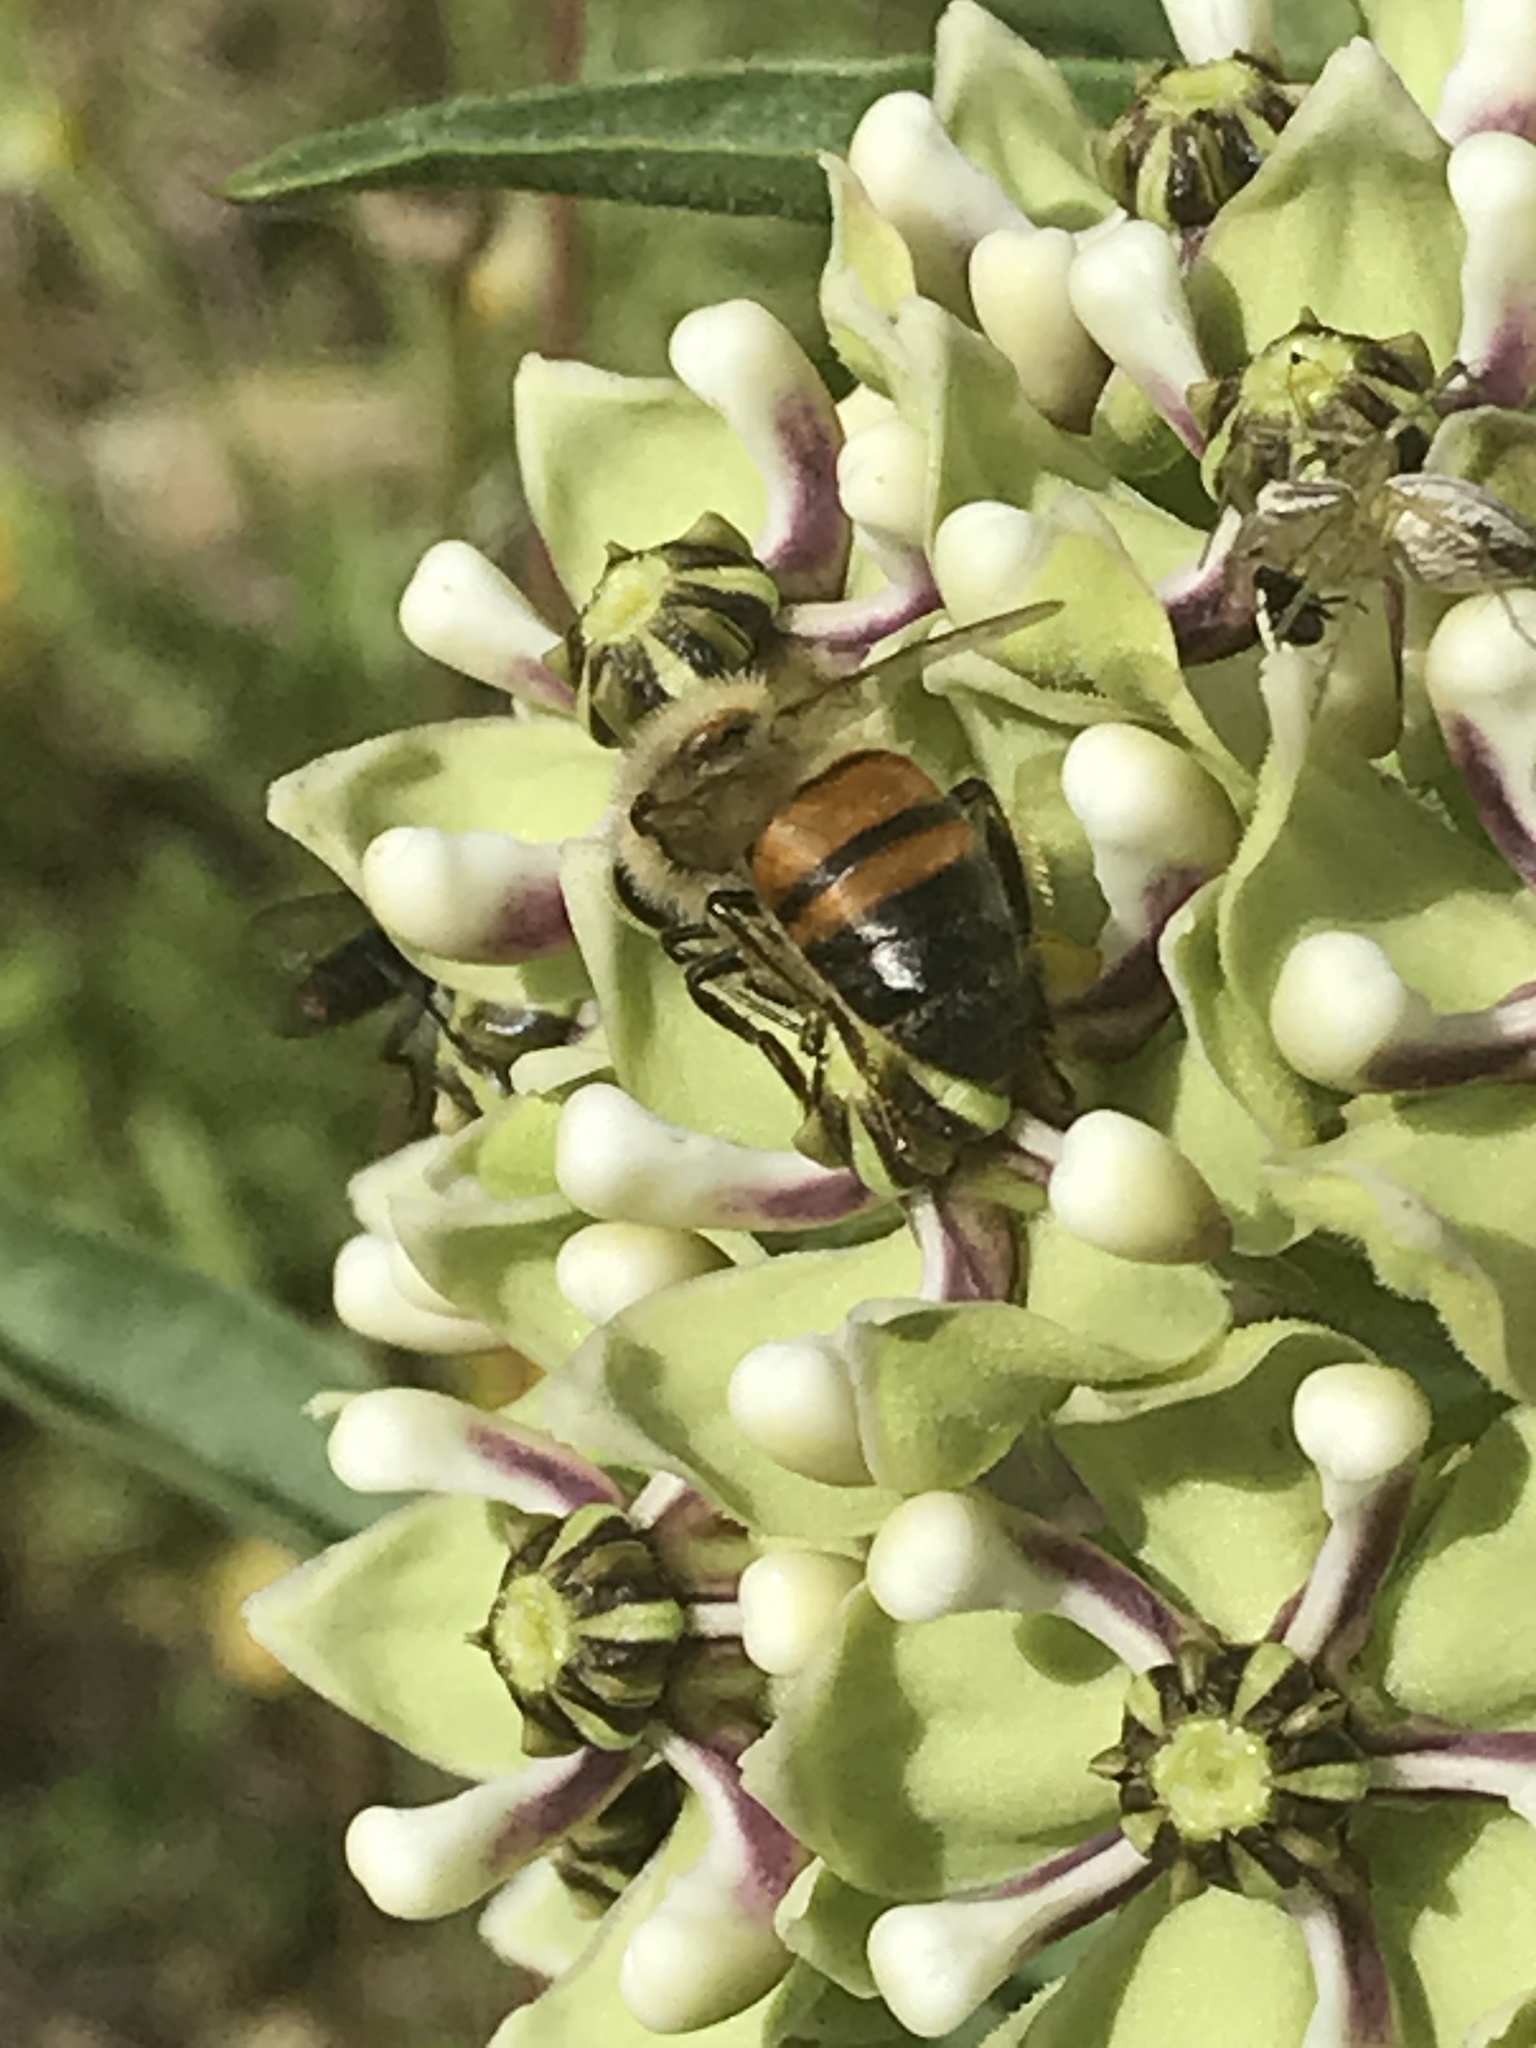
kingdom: Animalia
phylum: Arthropoda
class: Insecta
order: Hymenoptera
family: Apidae
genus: Apis
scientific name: Apis mellifera
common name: Honey bee
